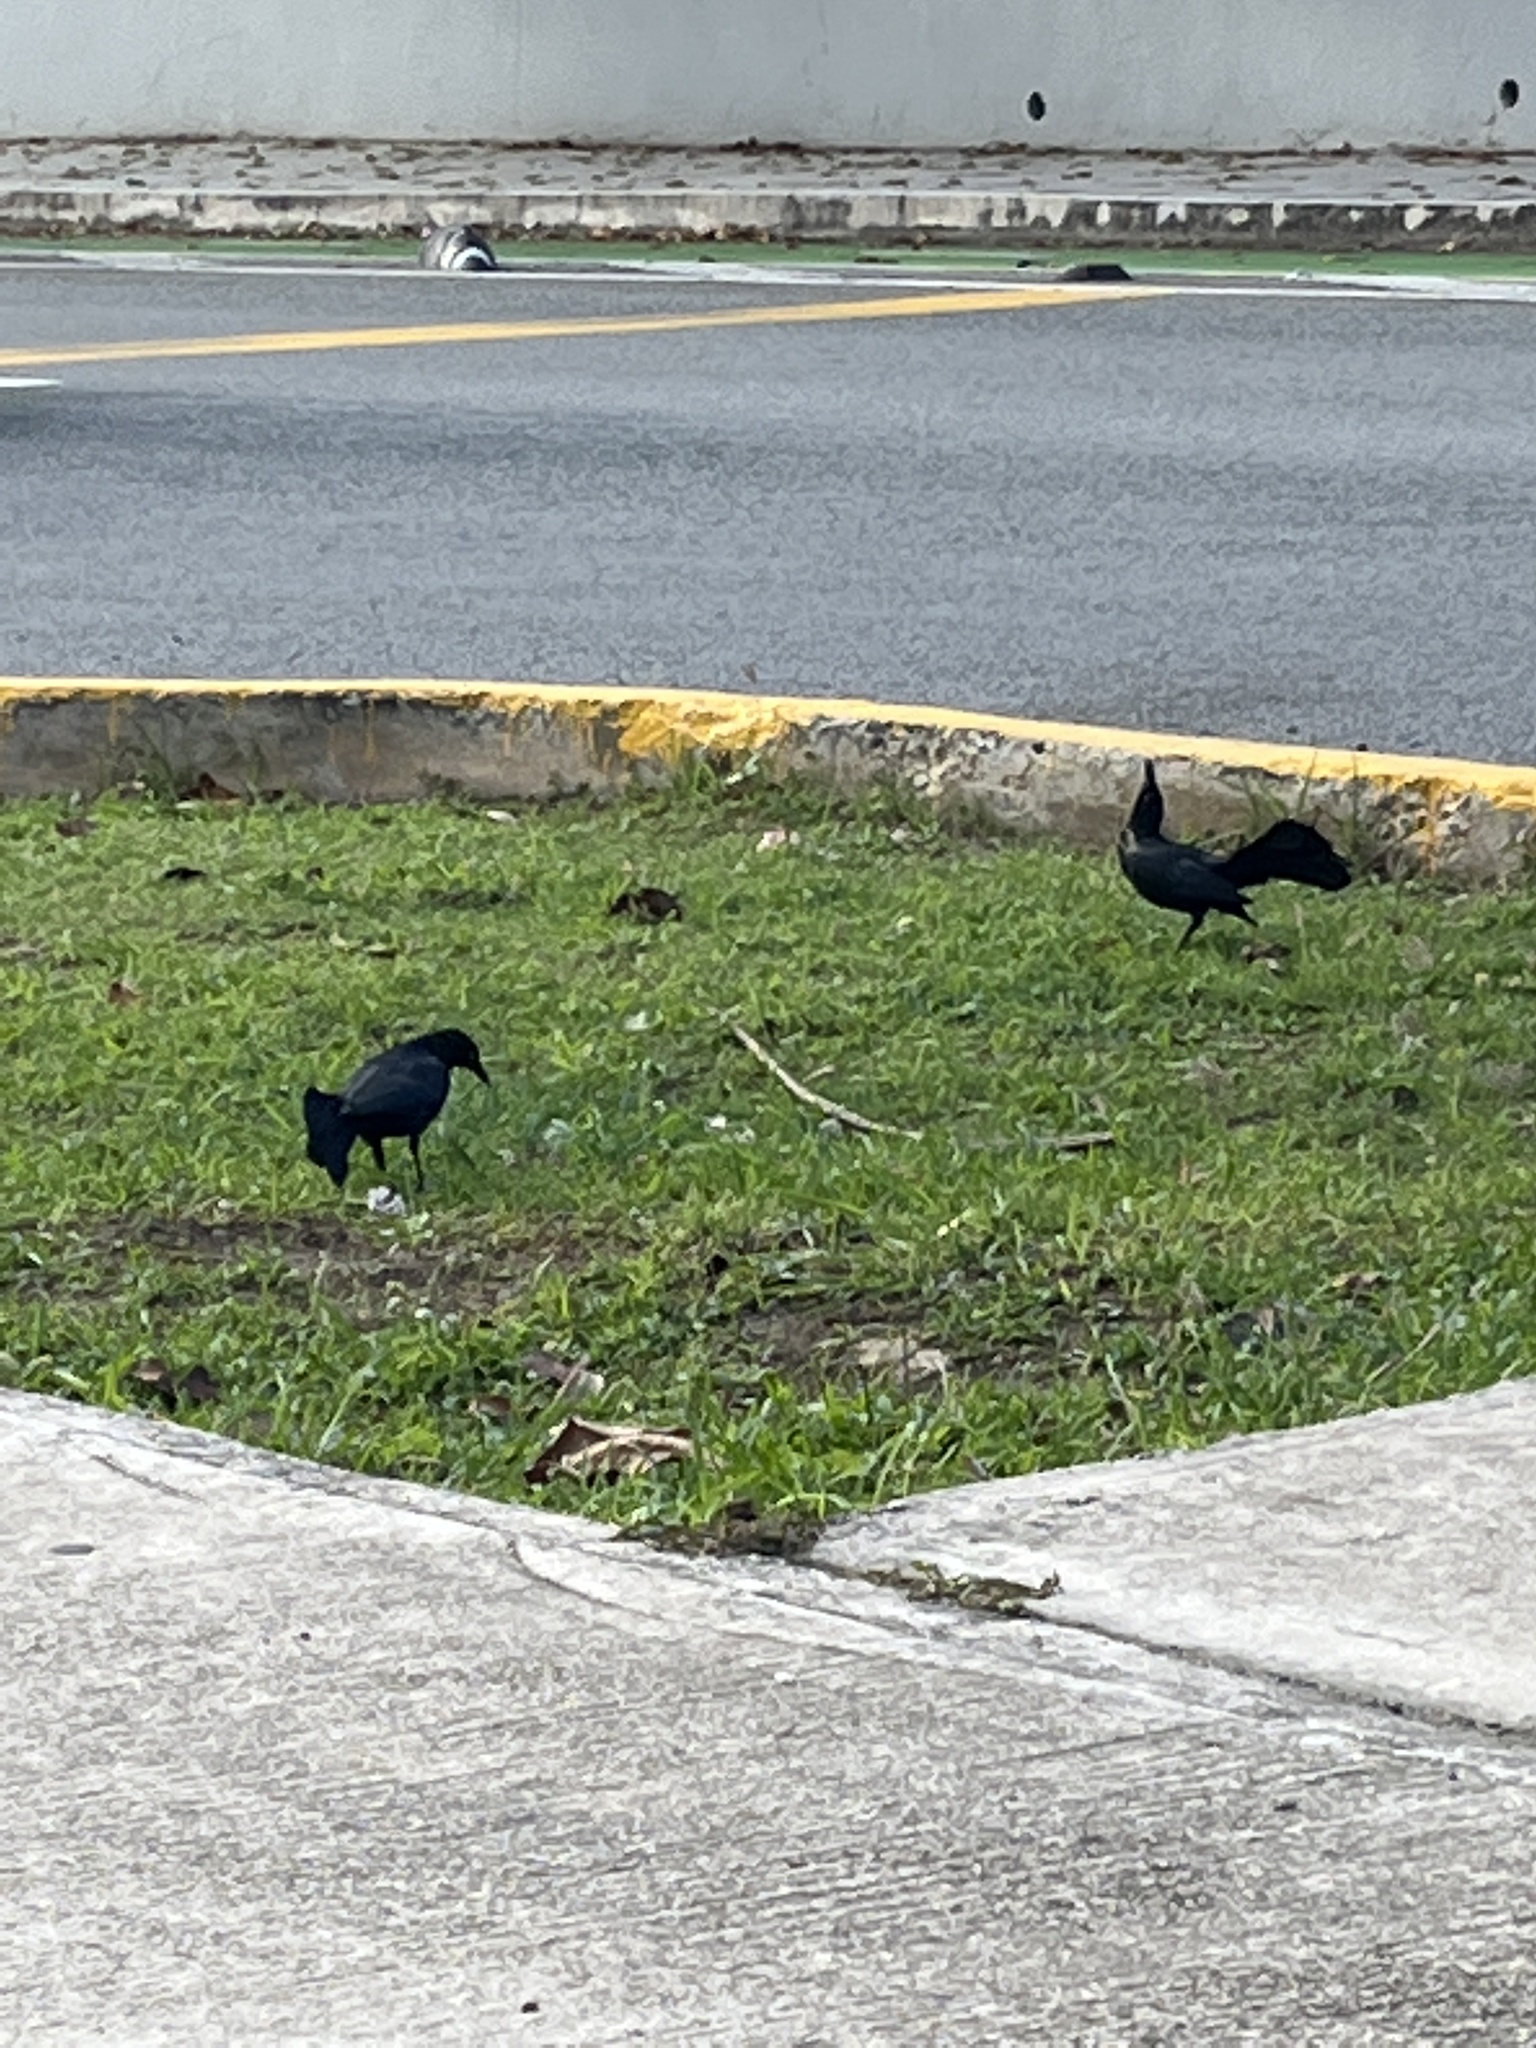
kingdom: Animalia
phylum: Chordata
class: Aves
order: Passeriformes
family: Icteridae
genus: Quiscalus
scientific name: Quiscalus niger
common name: Greater antillean grackle
